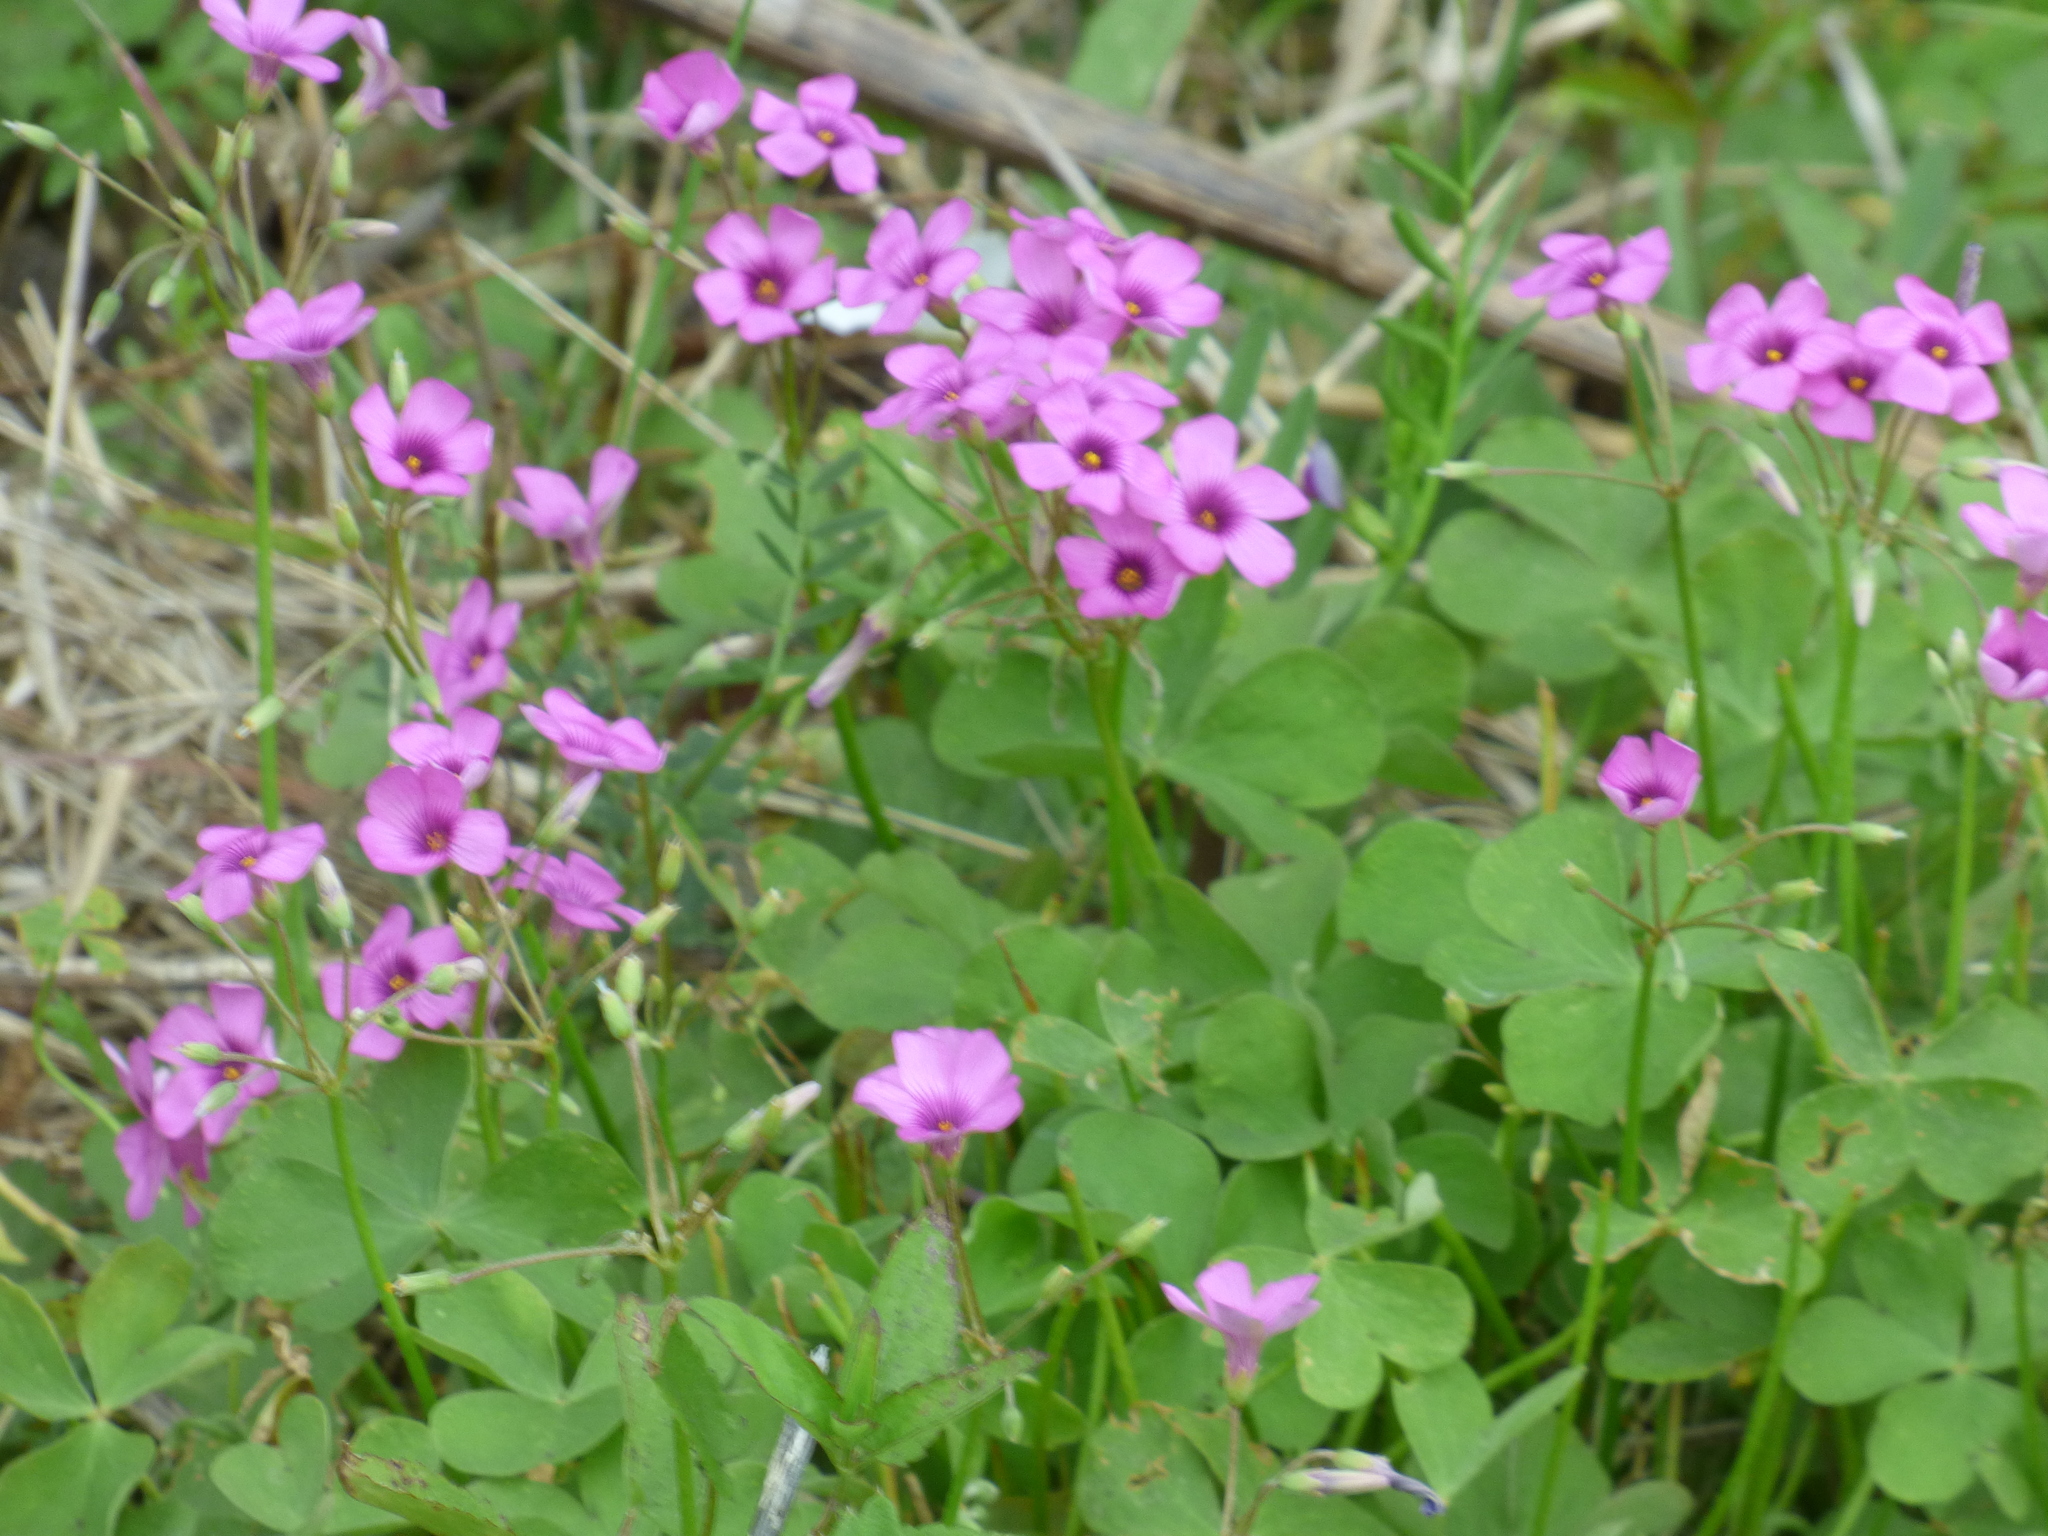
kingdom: Plantae
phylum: Tracheophyta
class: Magnoliopsida
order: Oxalidales
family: Oxalidaceae
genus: Oxalis
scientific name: Oxalis articulata
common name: Pink-sorrel
